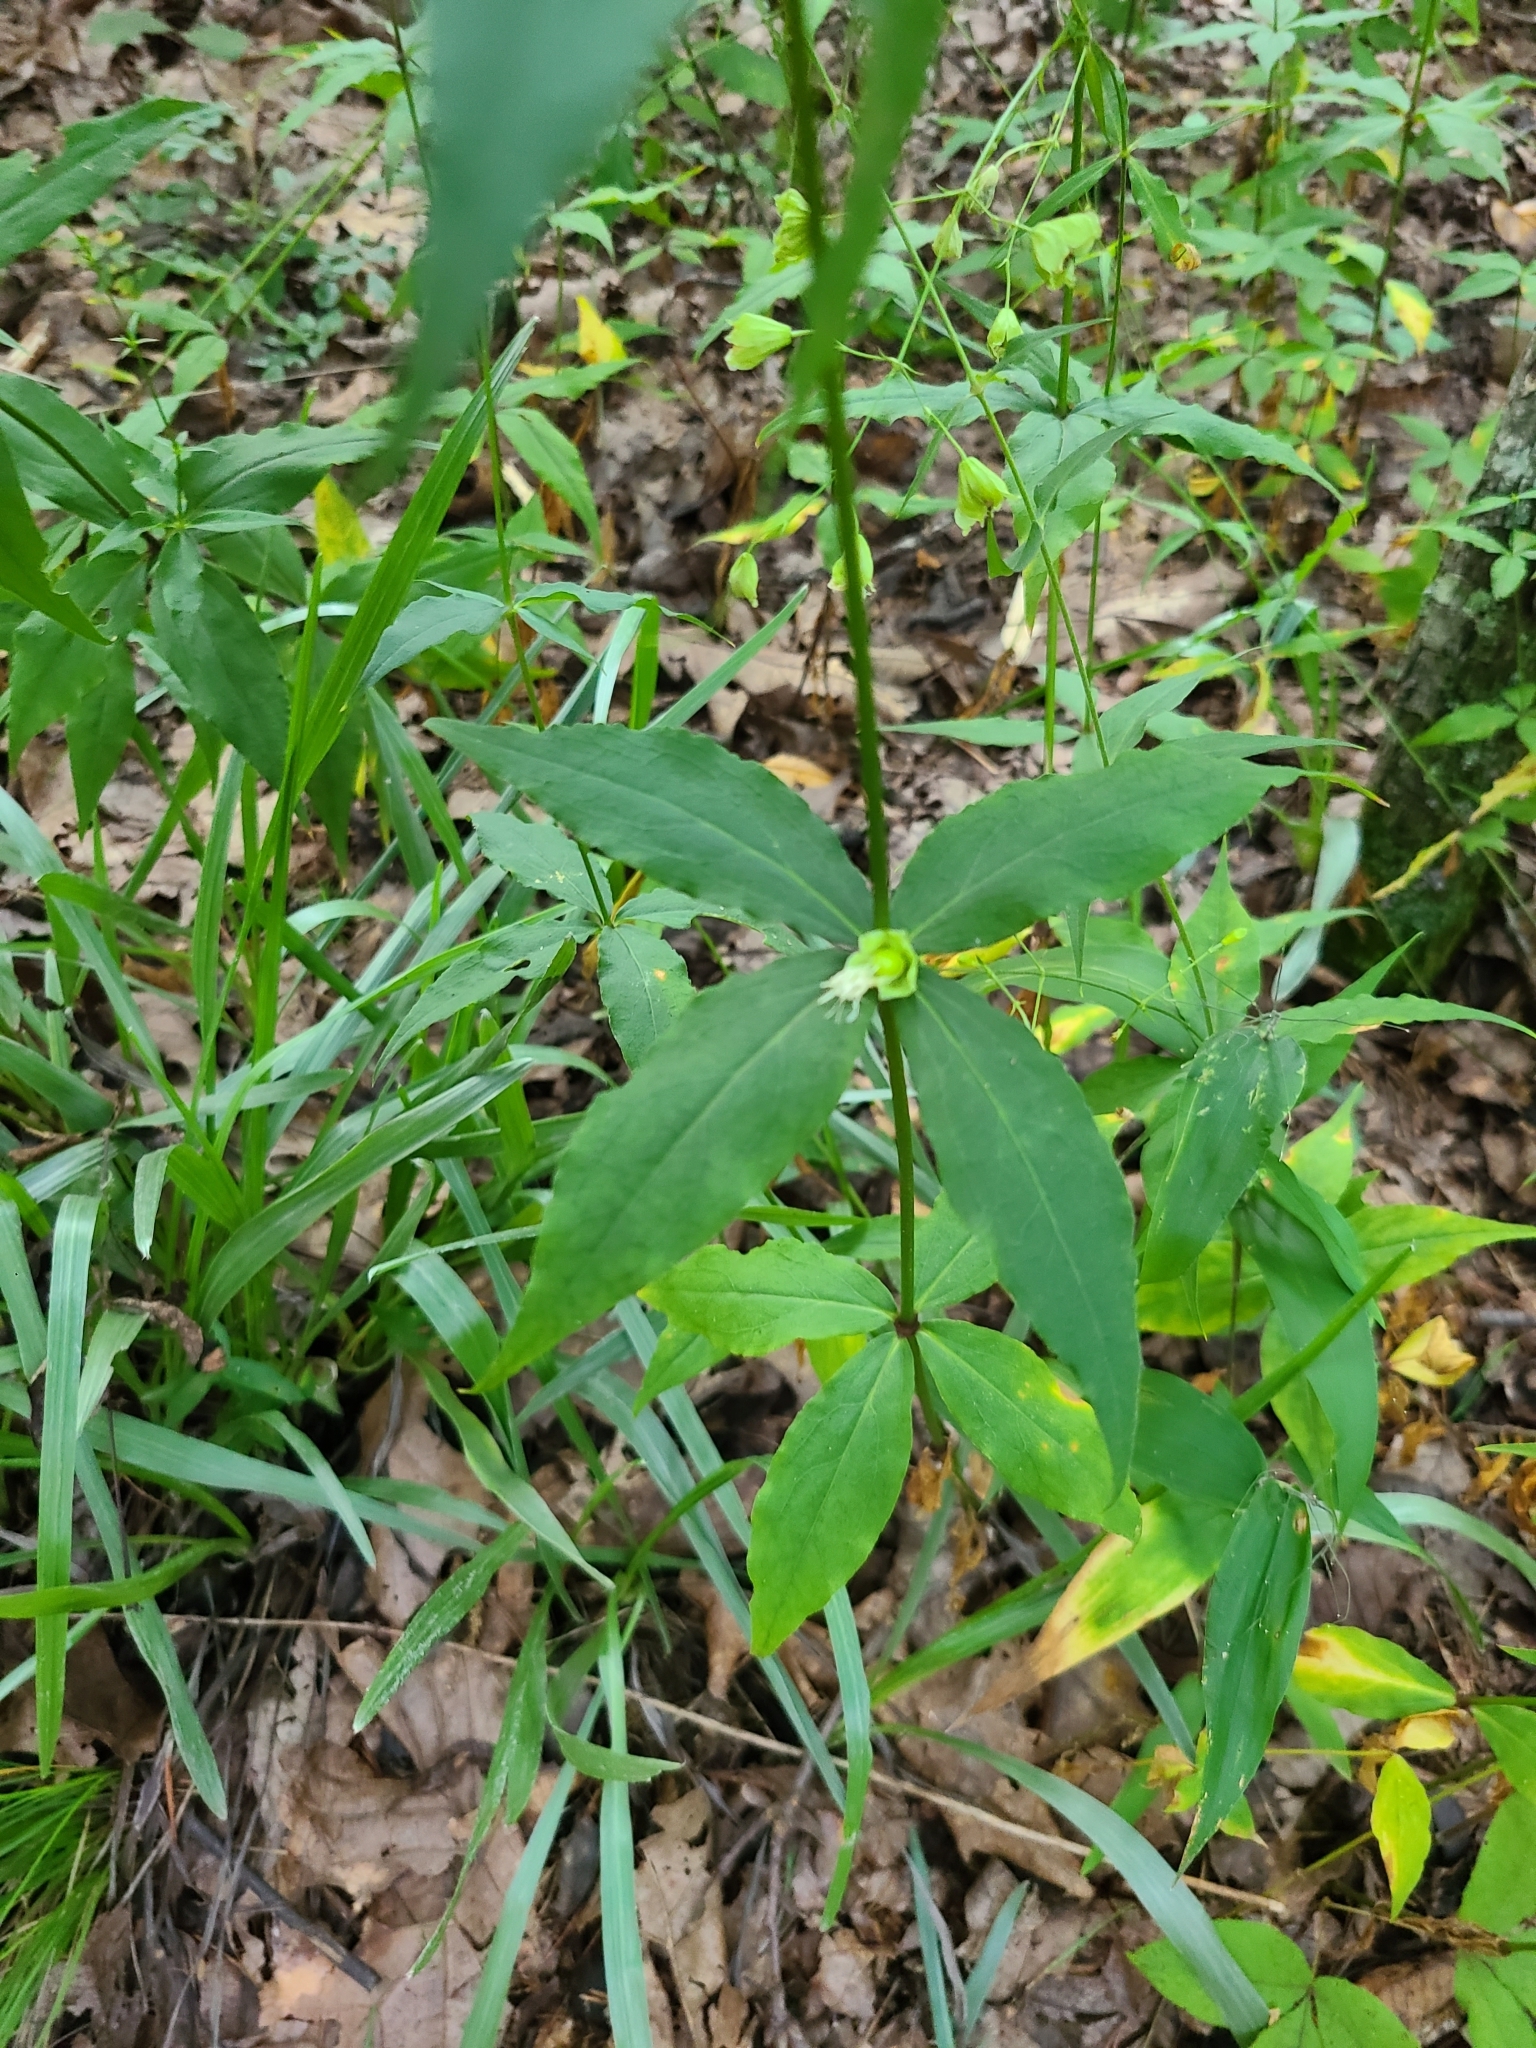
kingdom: Plantae
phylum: Tracheophyta
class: Magnoliopsida
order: Caryophyllales
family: Caryophyllaceae
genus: Silene
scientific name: Silene stellata
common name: Starry campion
